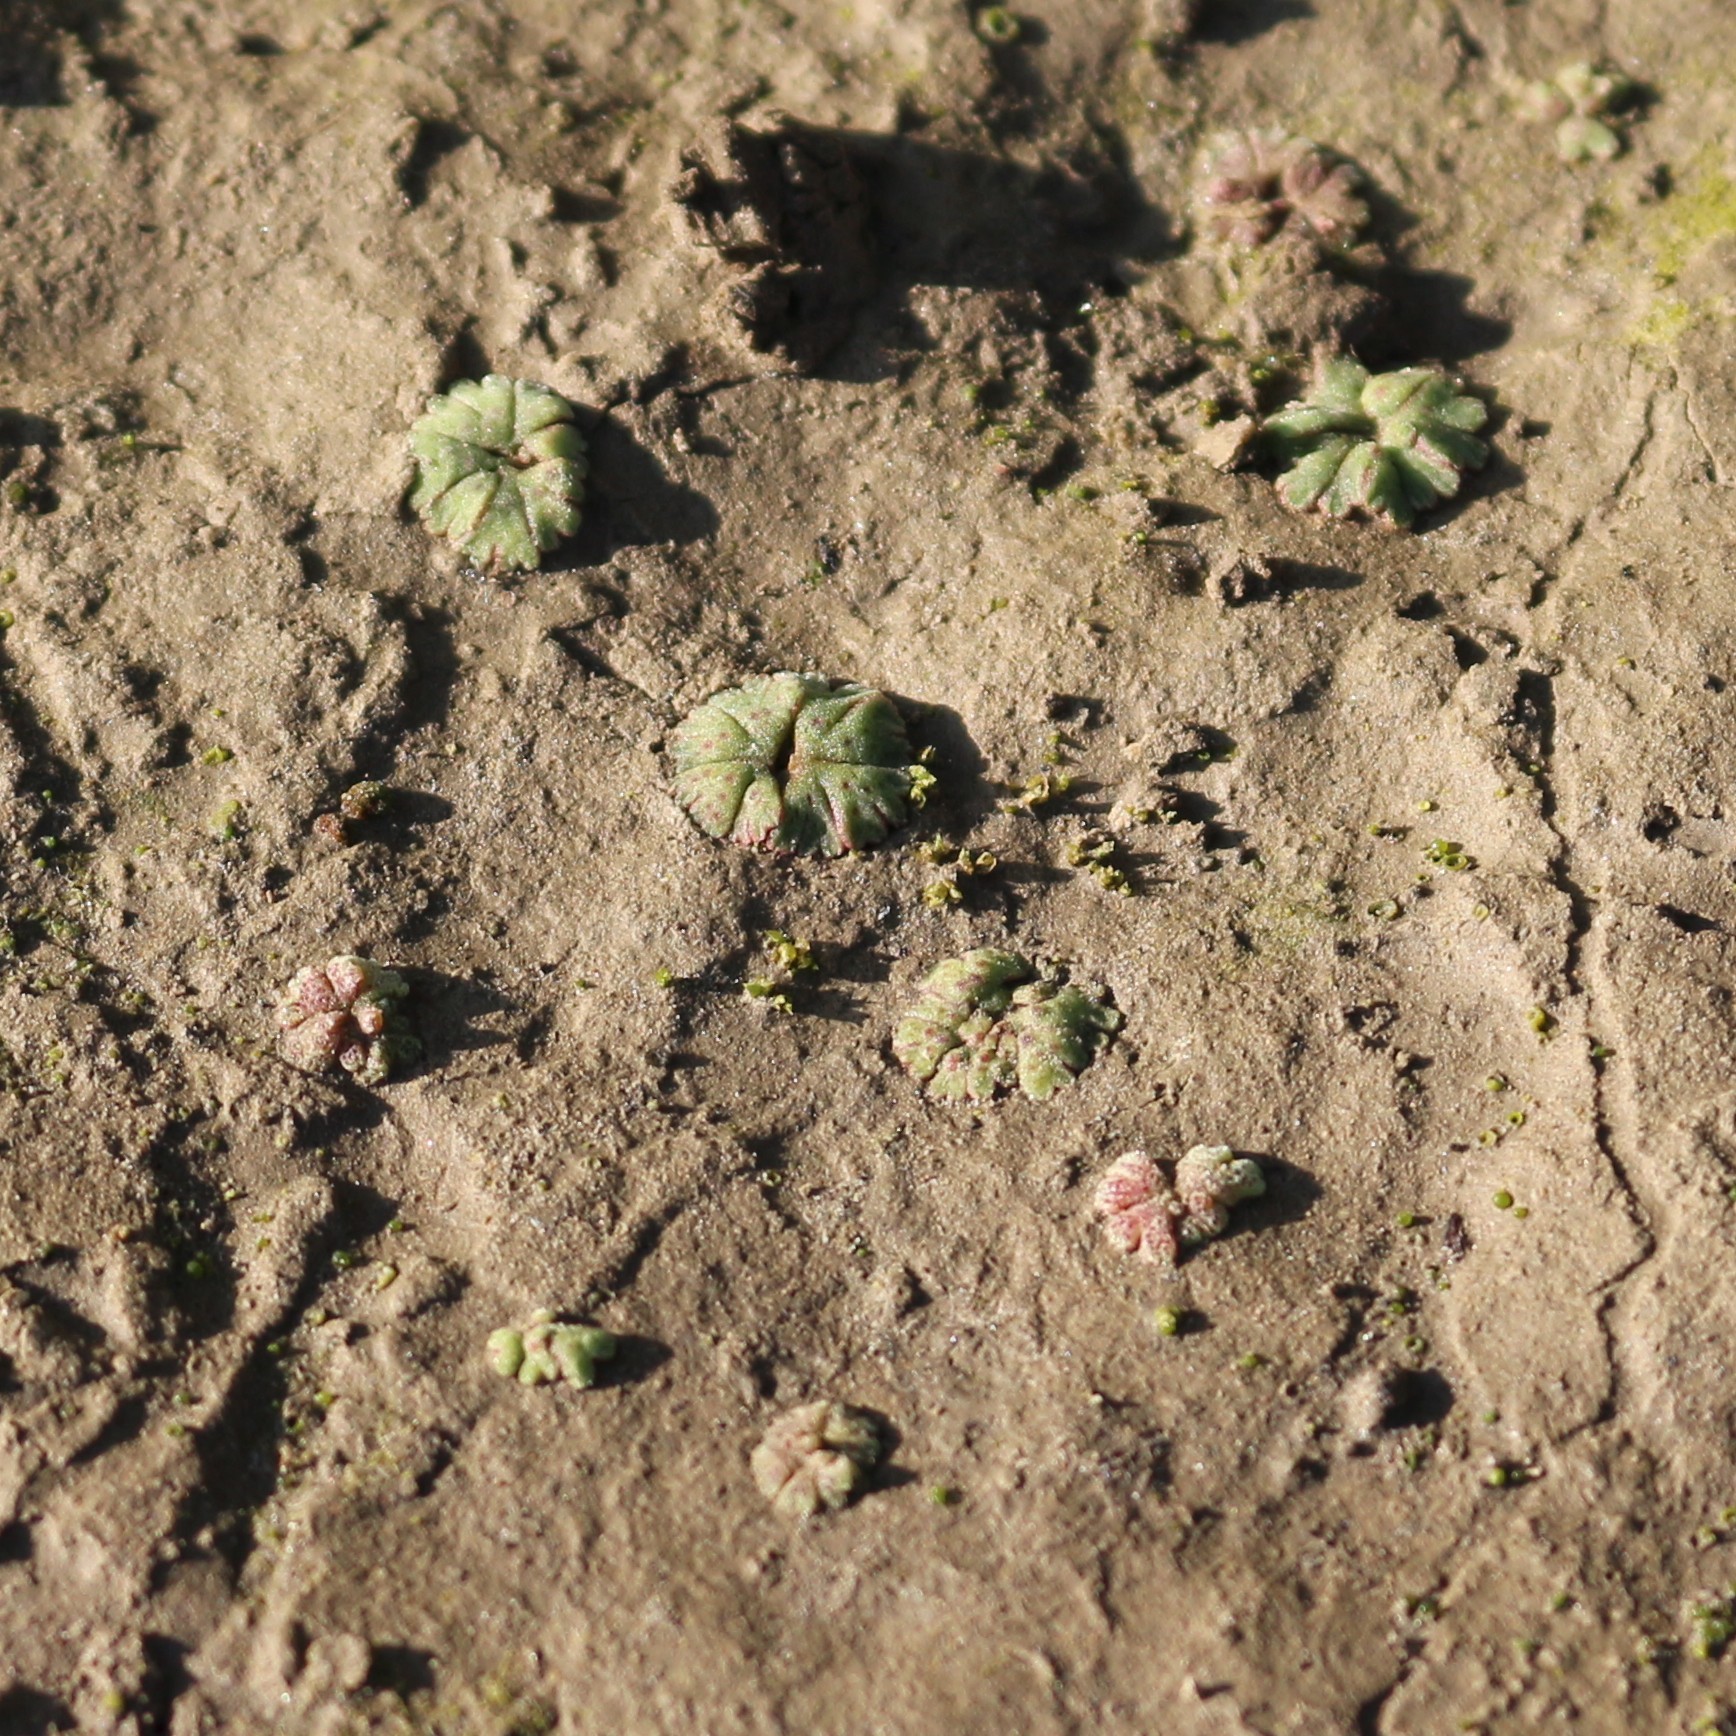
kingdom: Plantae
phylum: Marchantiophyta
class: Marchantiopsida
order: Marchantiales
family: Ricciaceae
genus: Riccia
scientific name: Riccia frostii
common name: Frost s crystalwort
